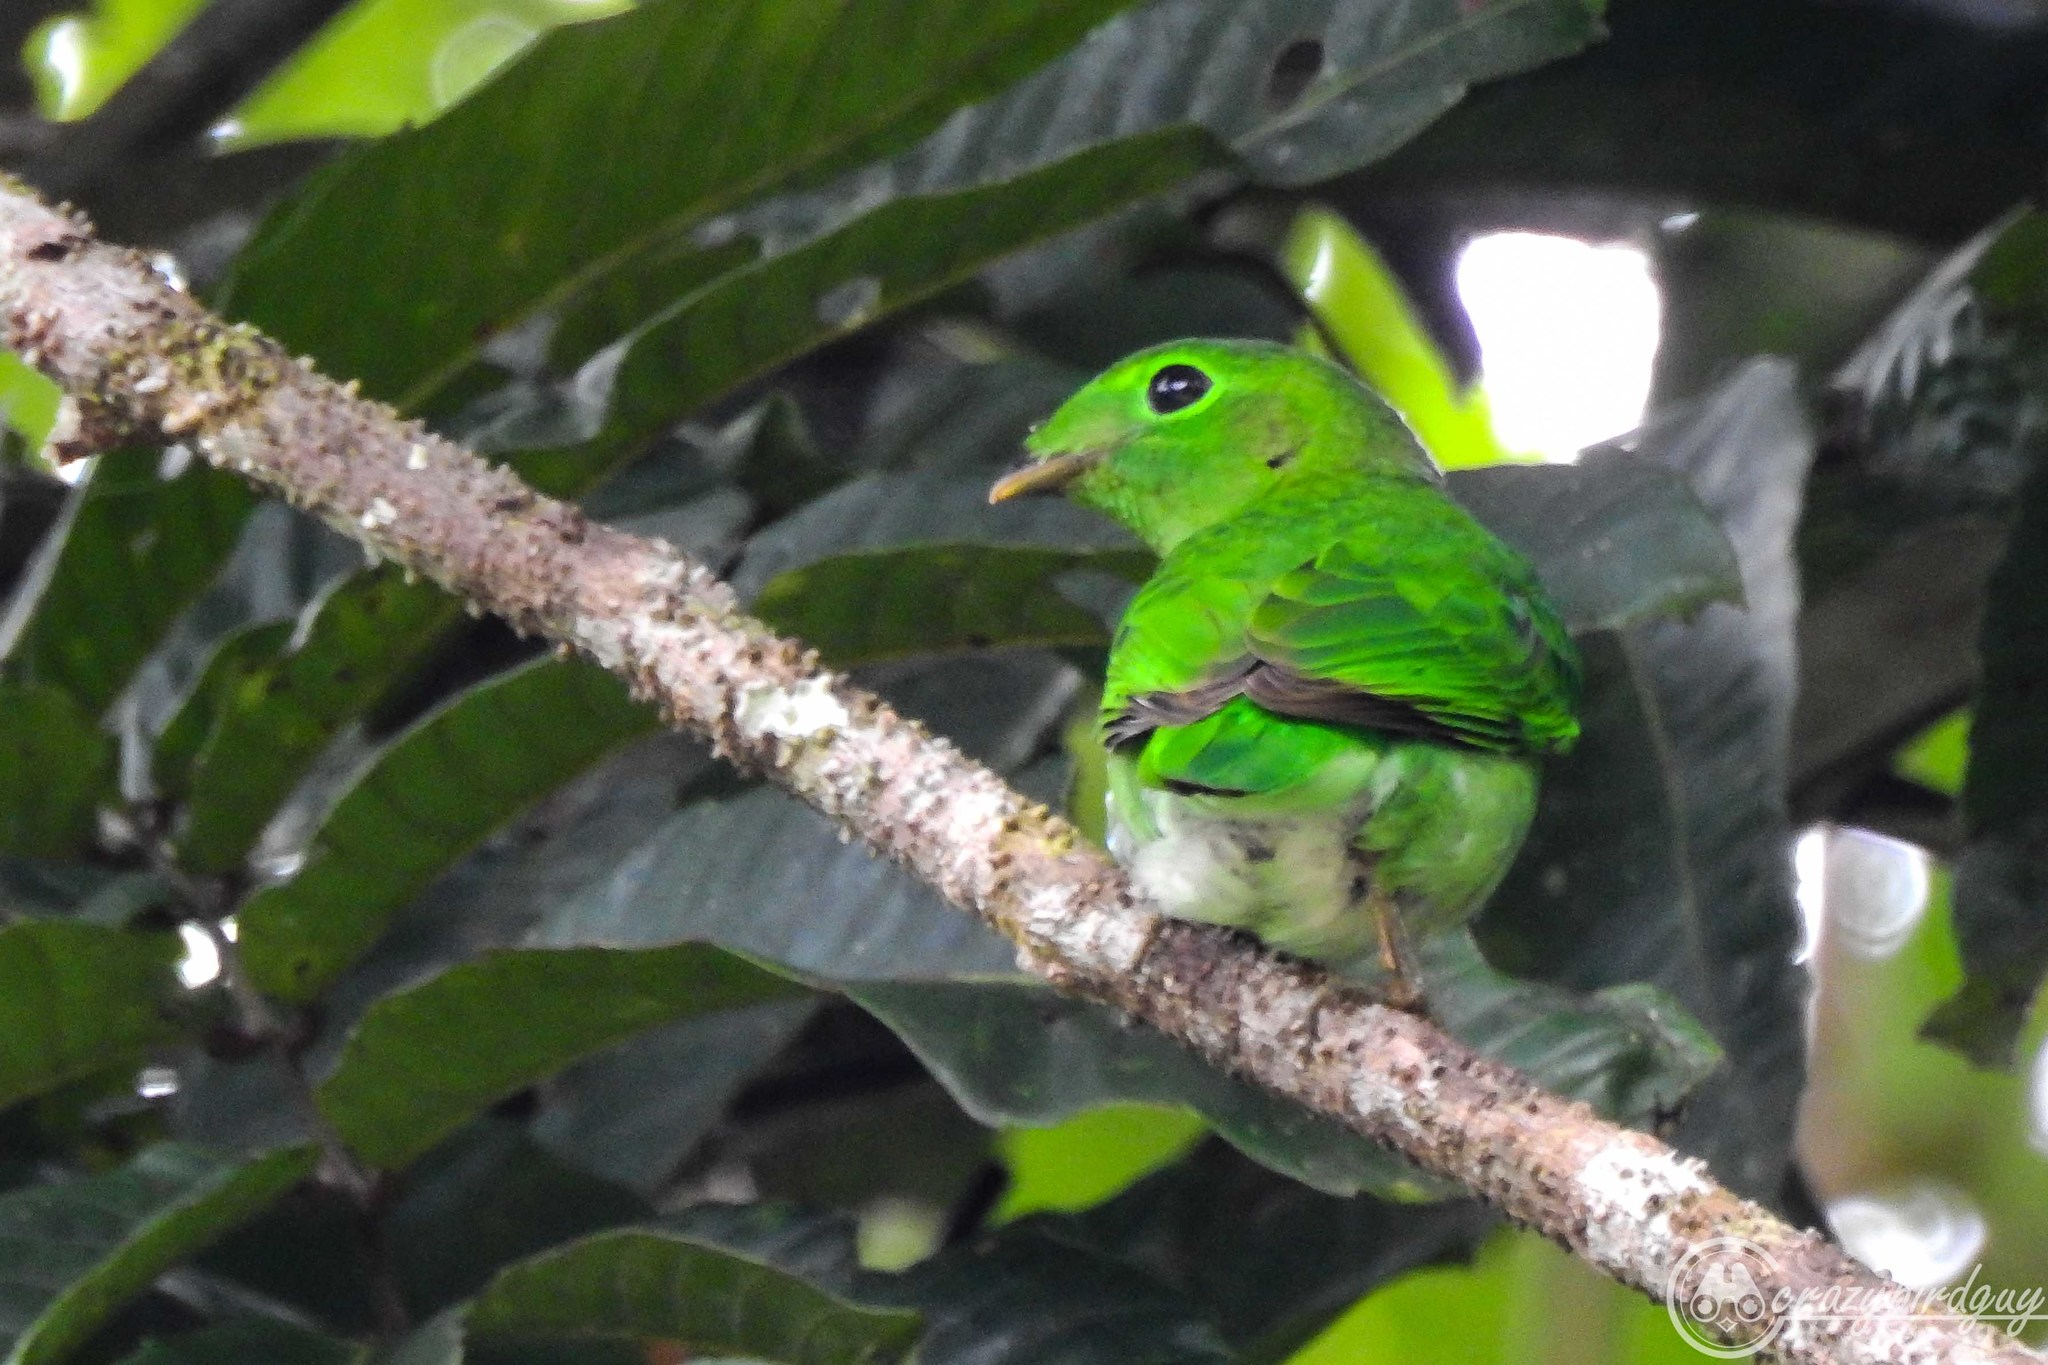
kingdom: Animalia
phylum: Chordata
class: Aves
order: Passeriformes
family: Eurylaimidae
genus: Calyptomena
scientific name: Calyptomena viridis
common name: Green broadbill
